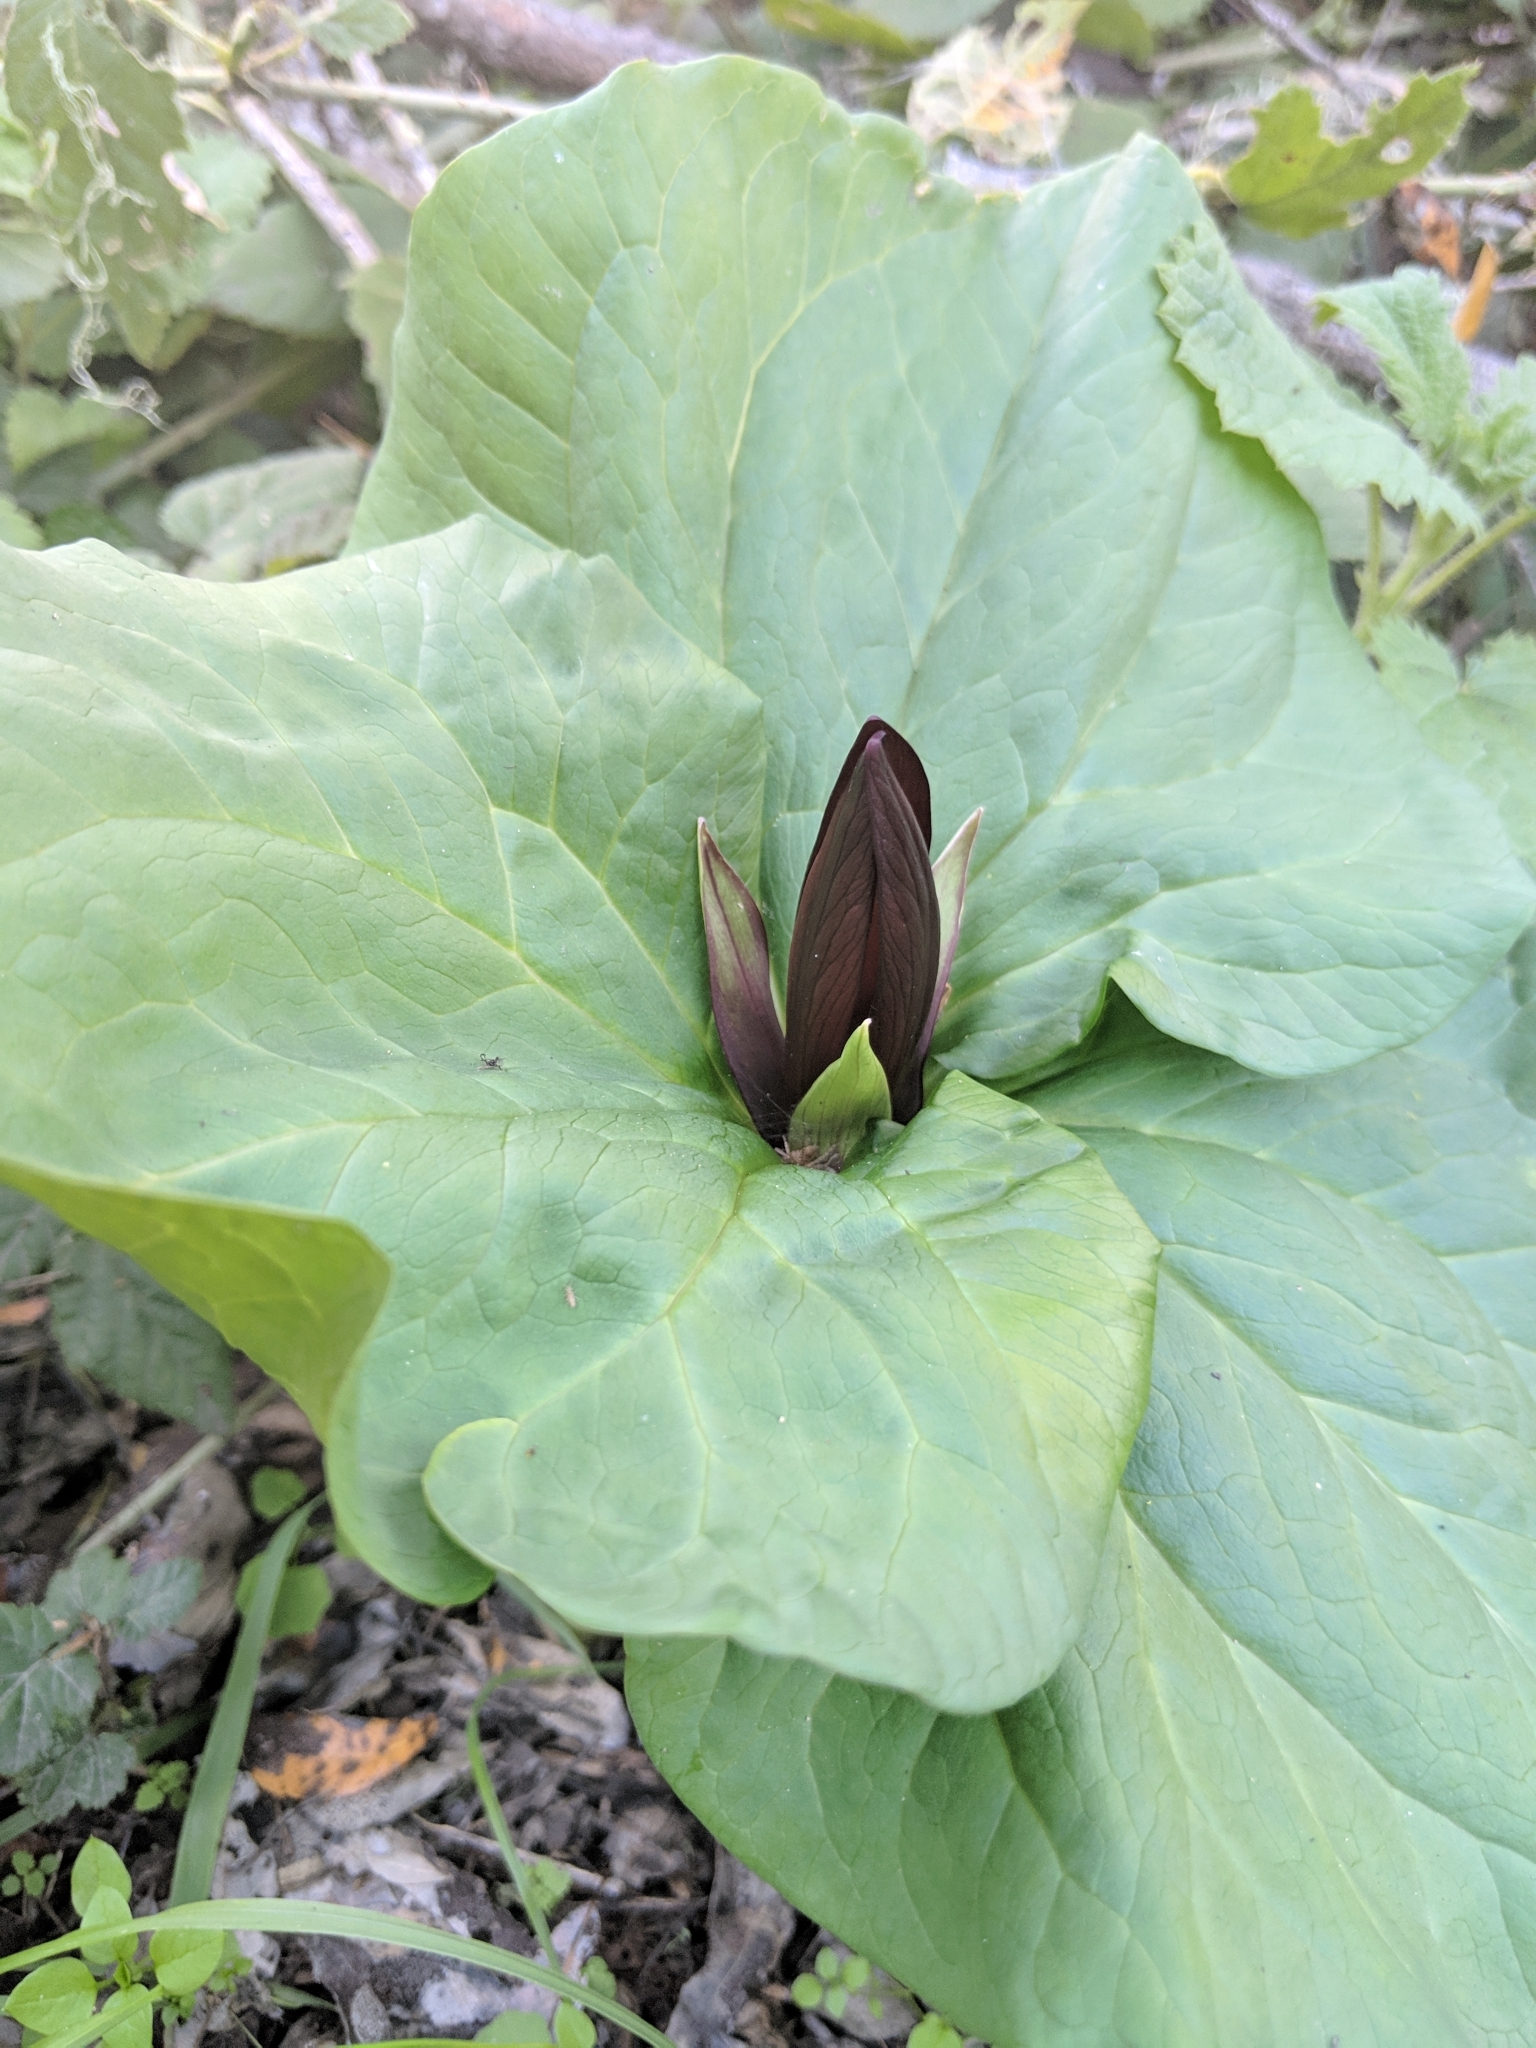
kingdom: Plantae
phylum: Tracheophyta
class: Liliopsida
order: Liliales
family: Melanthiaceae
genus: Trillium
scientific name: Trillium angustipetalum
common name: Narrow-petaled trillium
